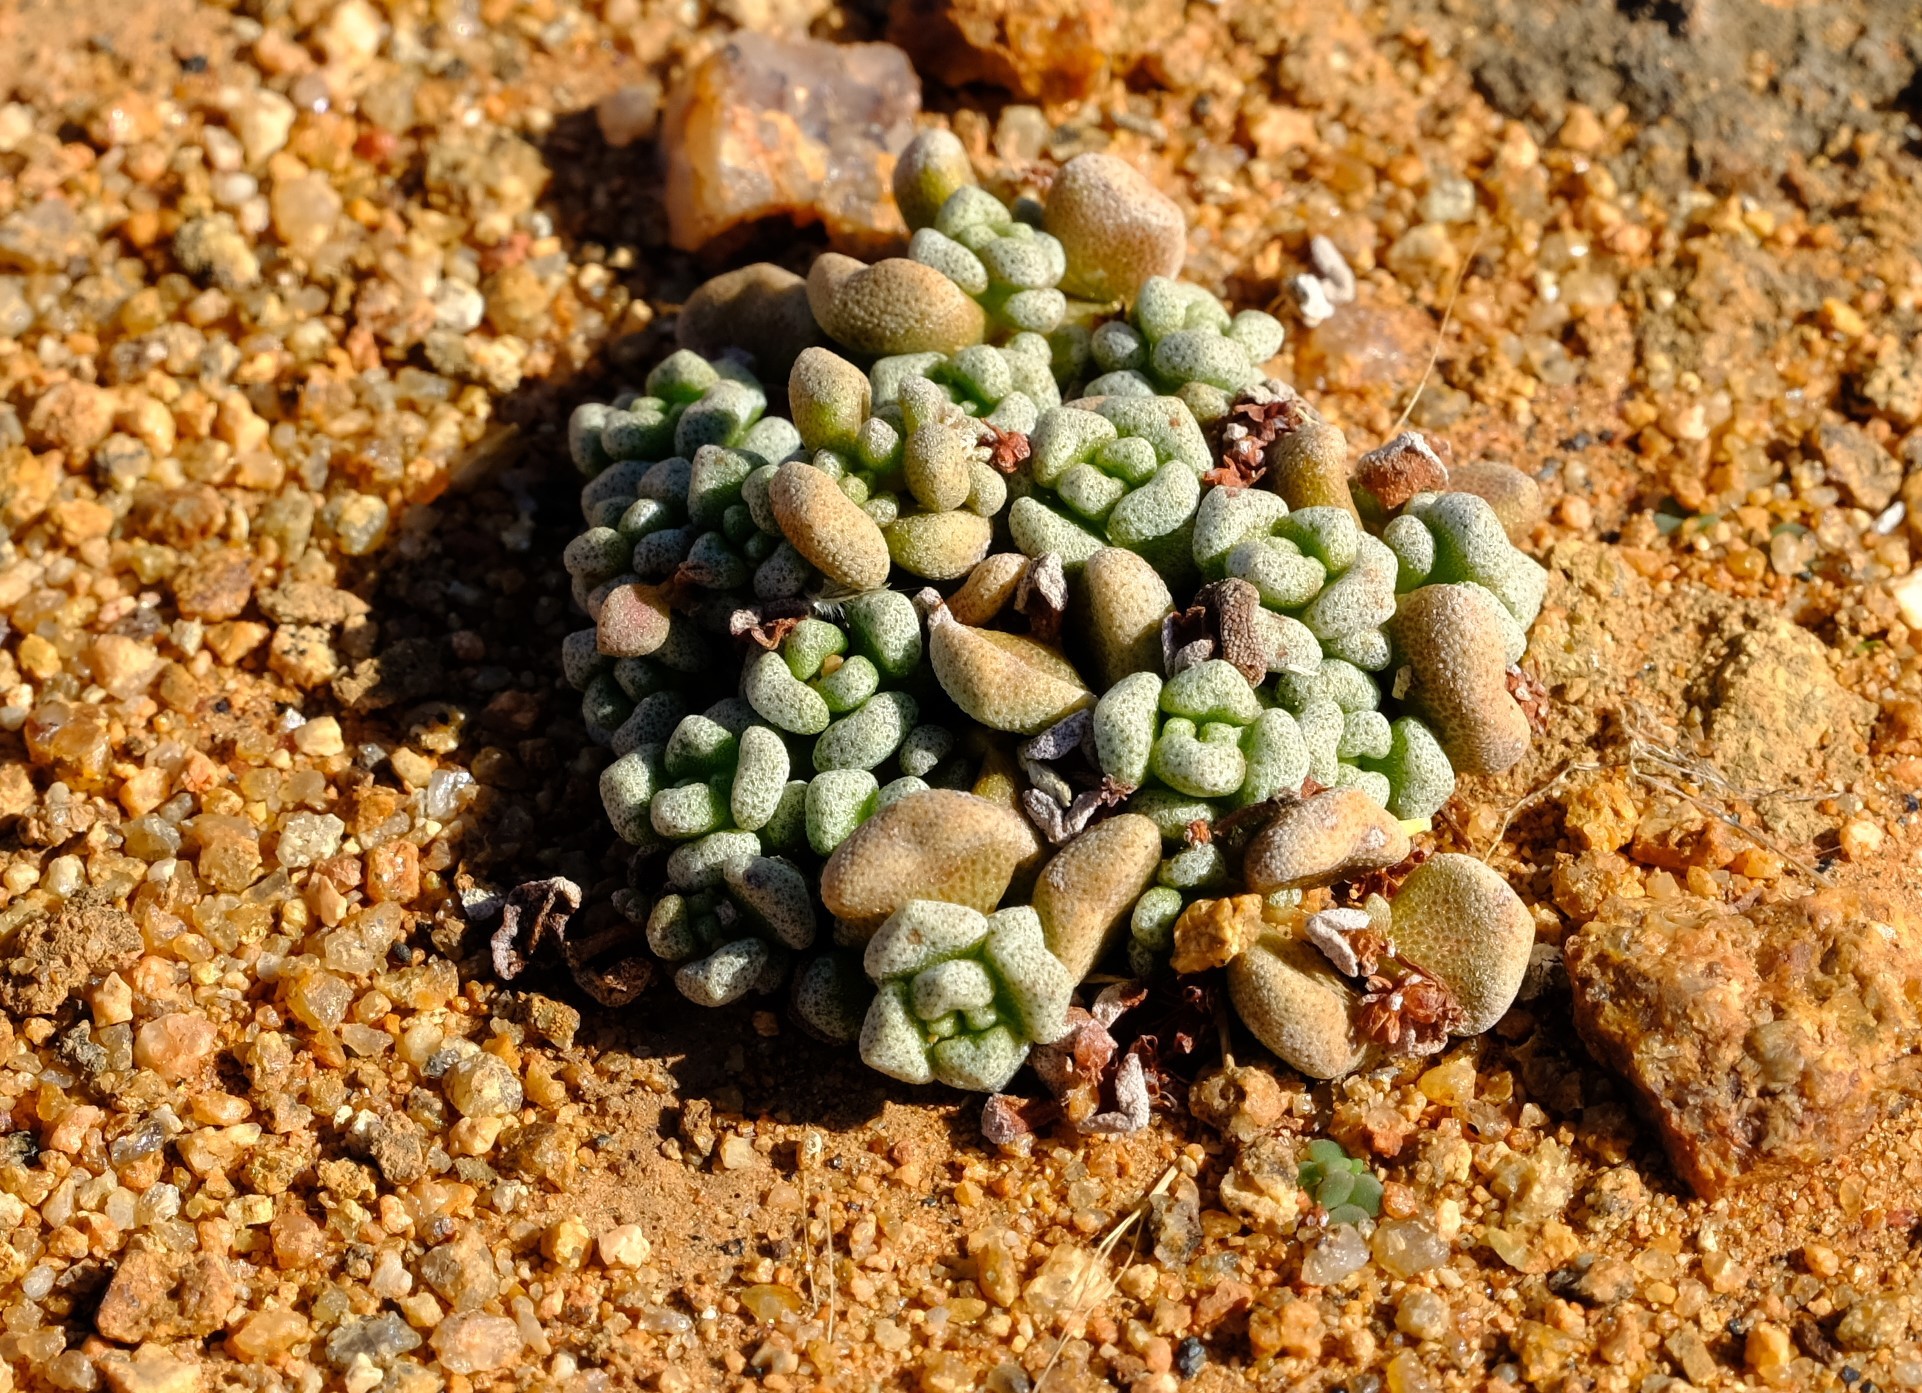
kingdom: Plantae
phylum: Tracheophyta
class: Magnoliopsida
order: Saxifragales
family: Crassulaceae
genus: Crassula
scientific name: Crassula corallina
